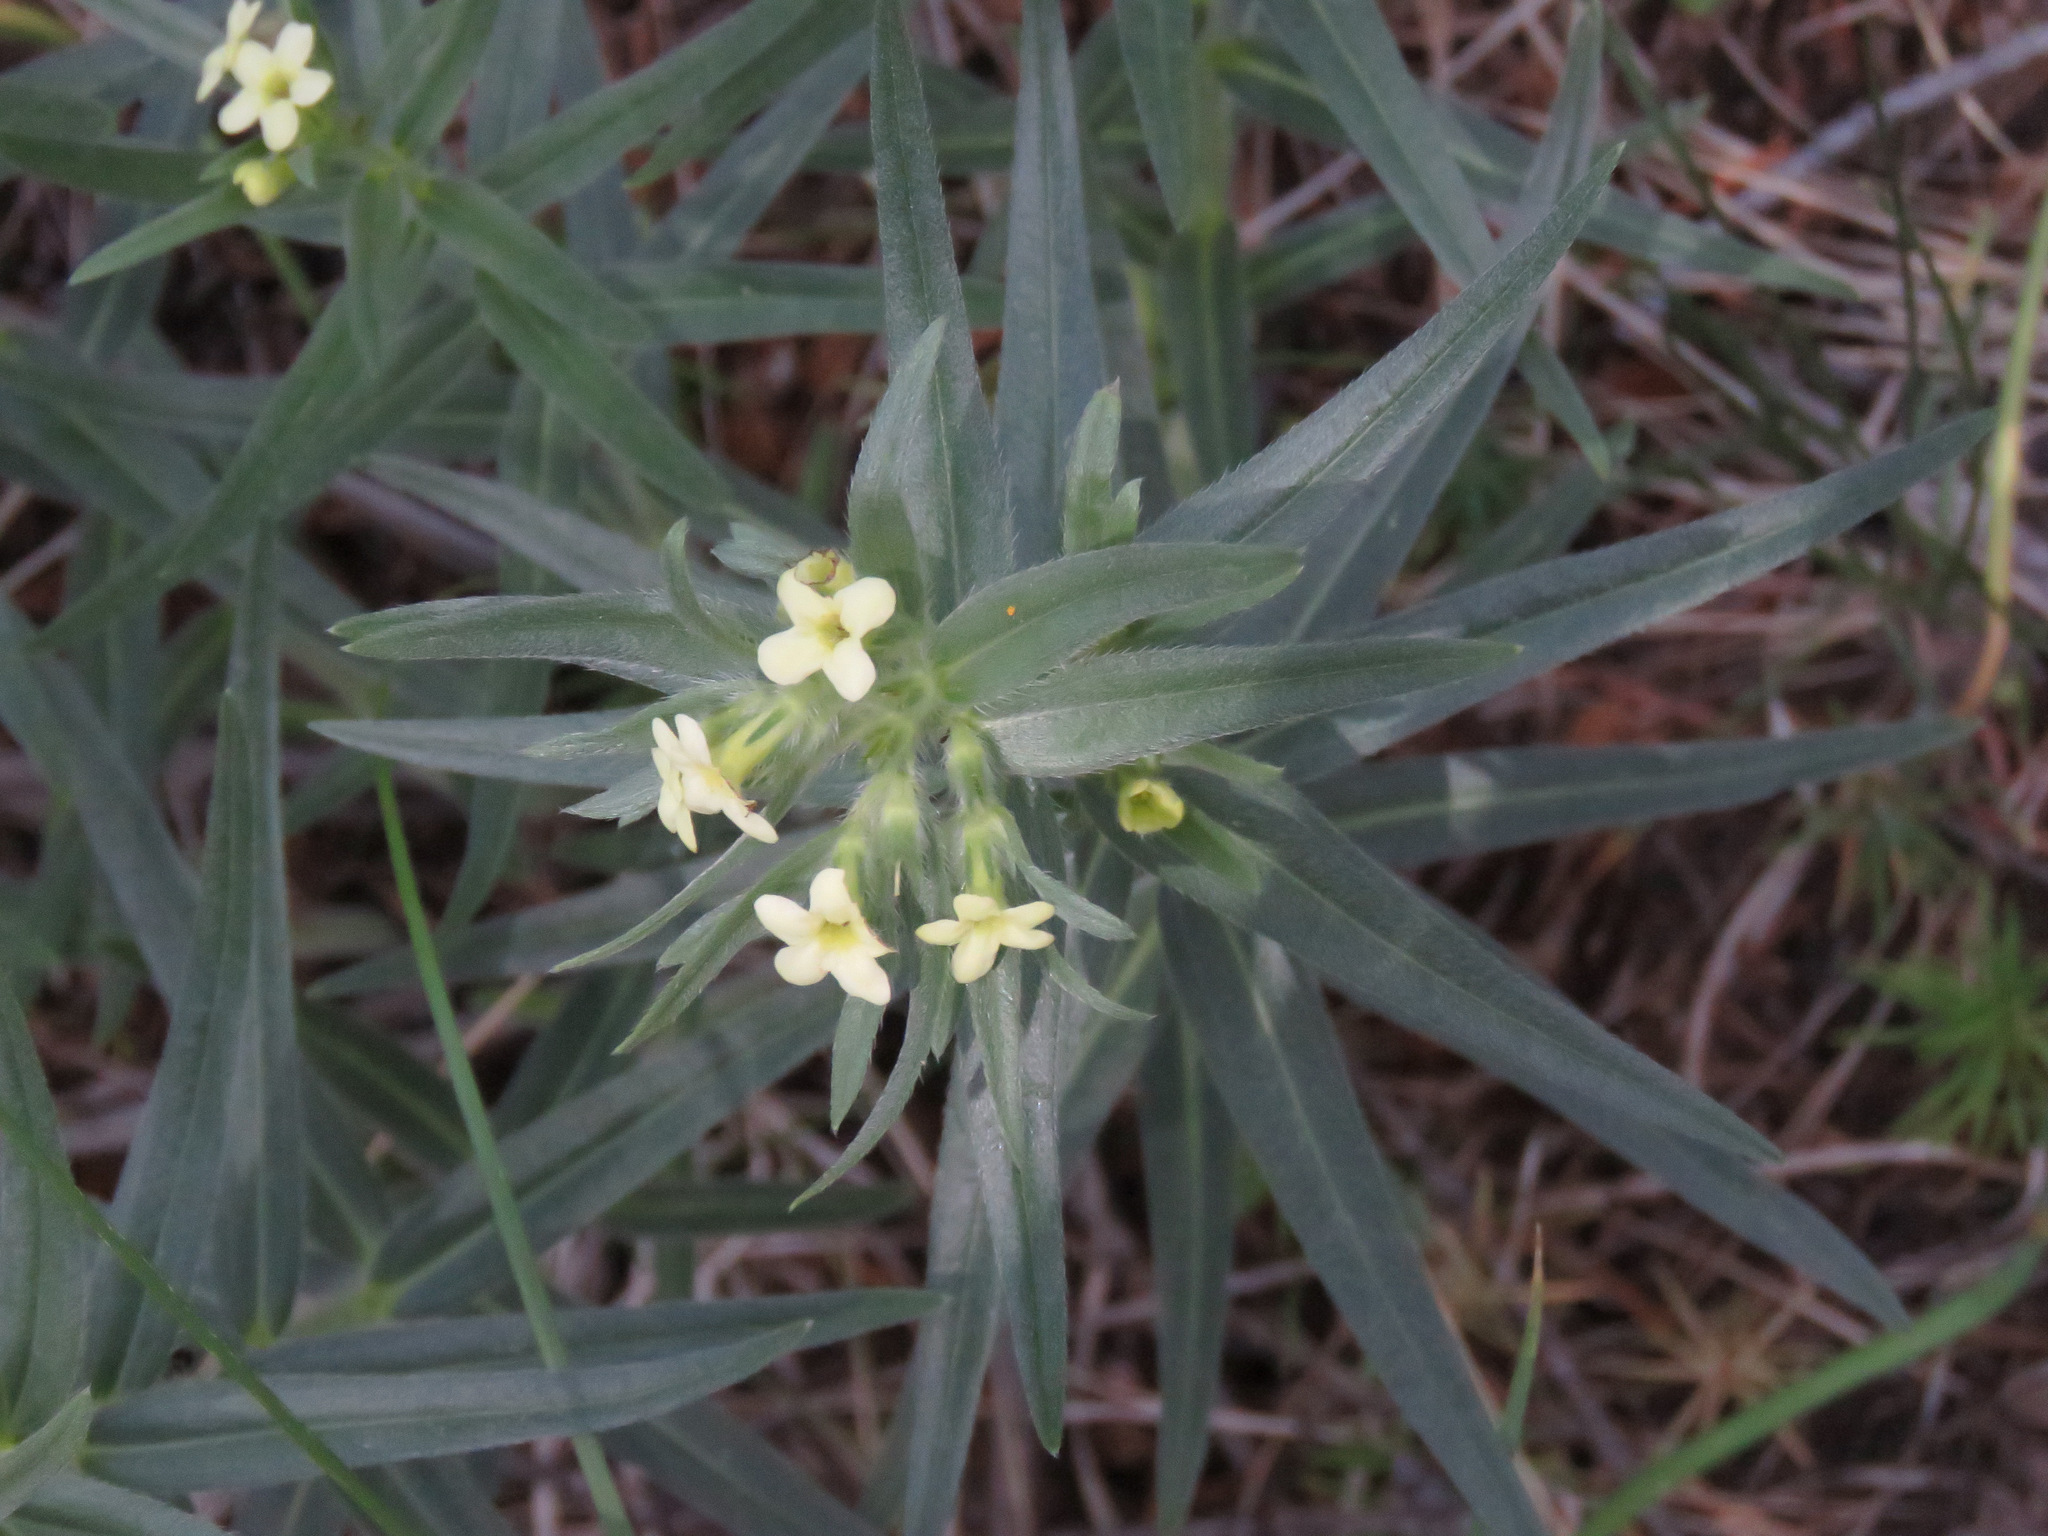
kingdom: Plantae
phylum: Tracheophyta
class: Magnoliopsida
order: Boraginales
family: Boraginaceae
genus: Lithospermum
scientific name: Lithospermum ruderale
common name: Western gromwell
